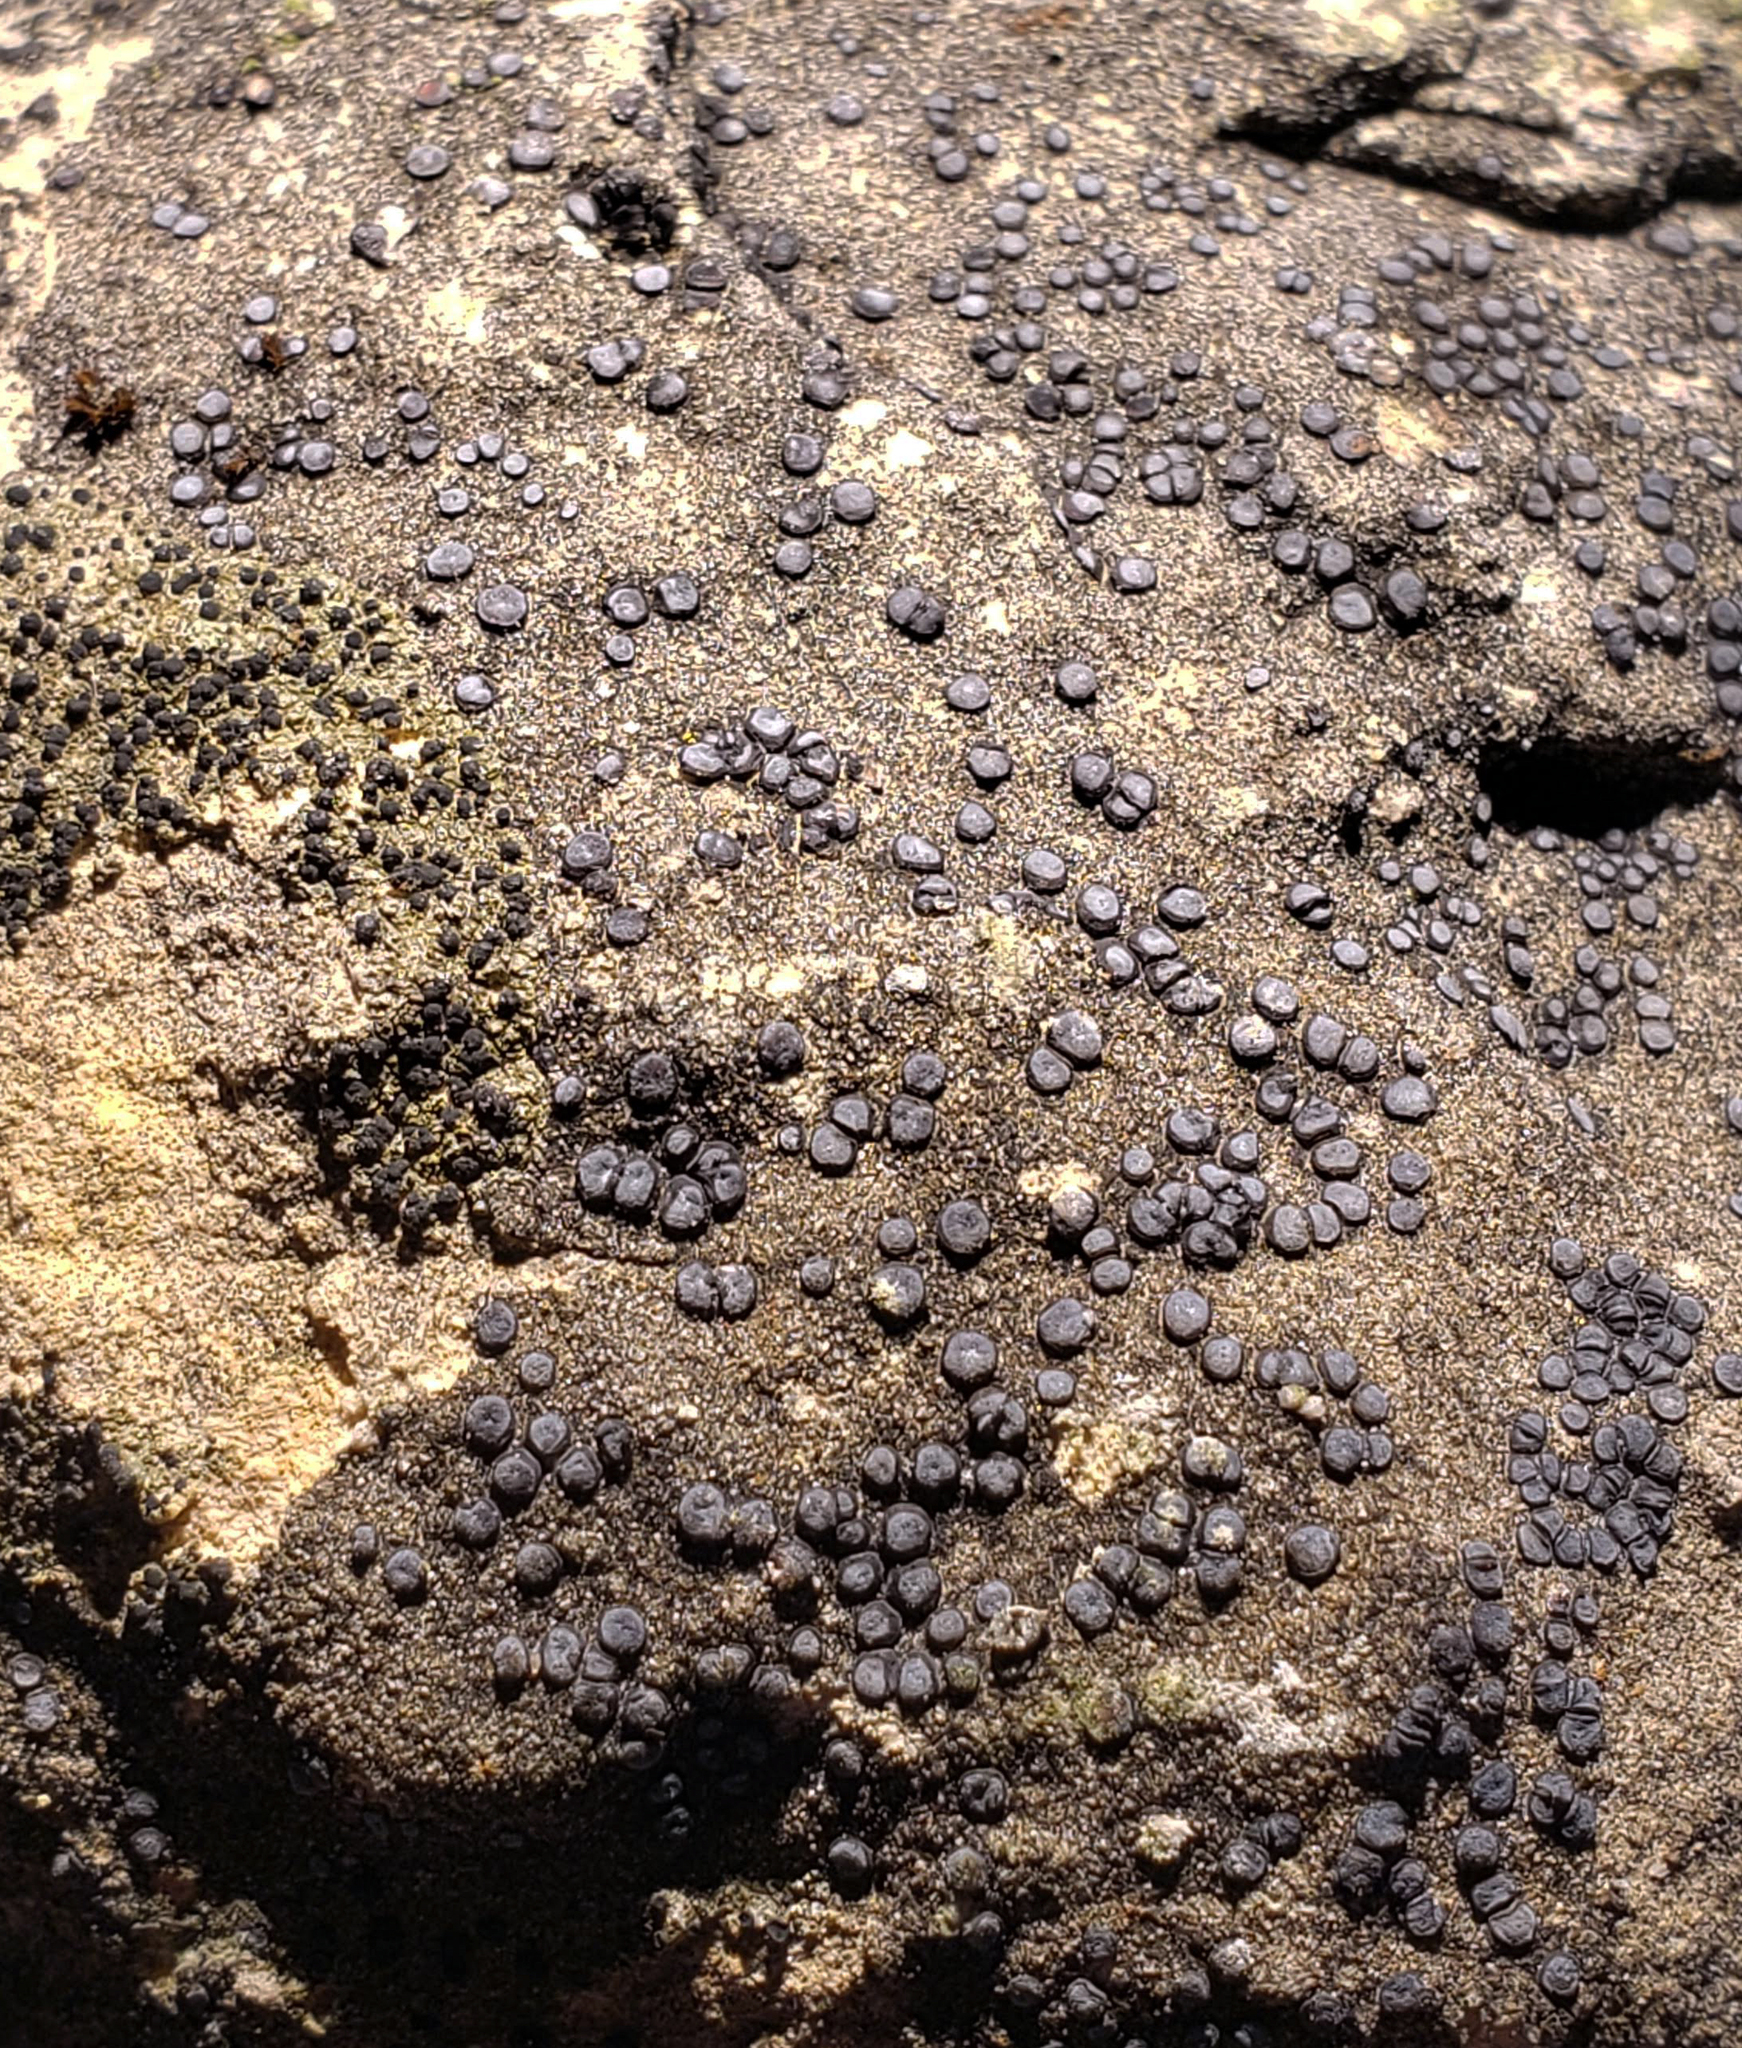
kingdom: Fungi
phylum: Ascomycota
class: Lecanoromycetes
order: Acarosporales
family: Acarosporaceae
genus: Sarcogyne
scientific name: Sarcogyne regularis
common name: Frosted grain-spored lichen
